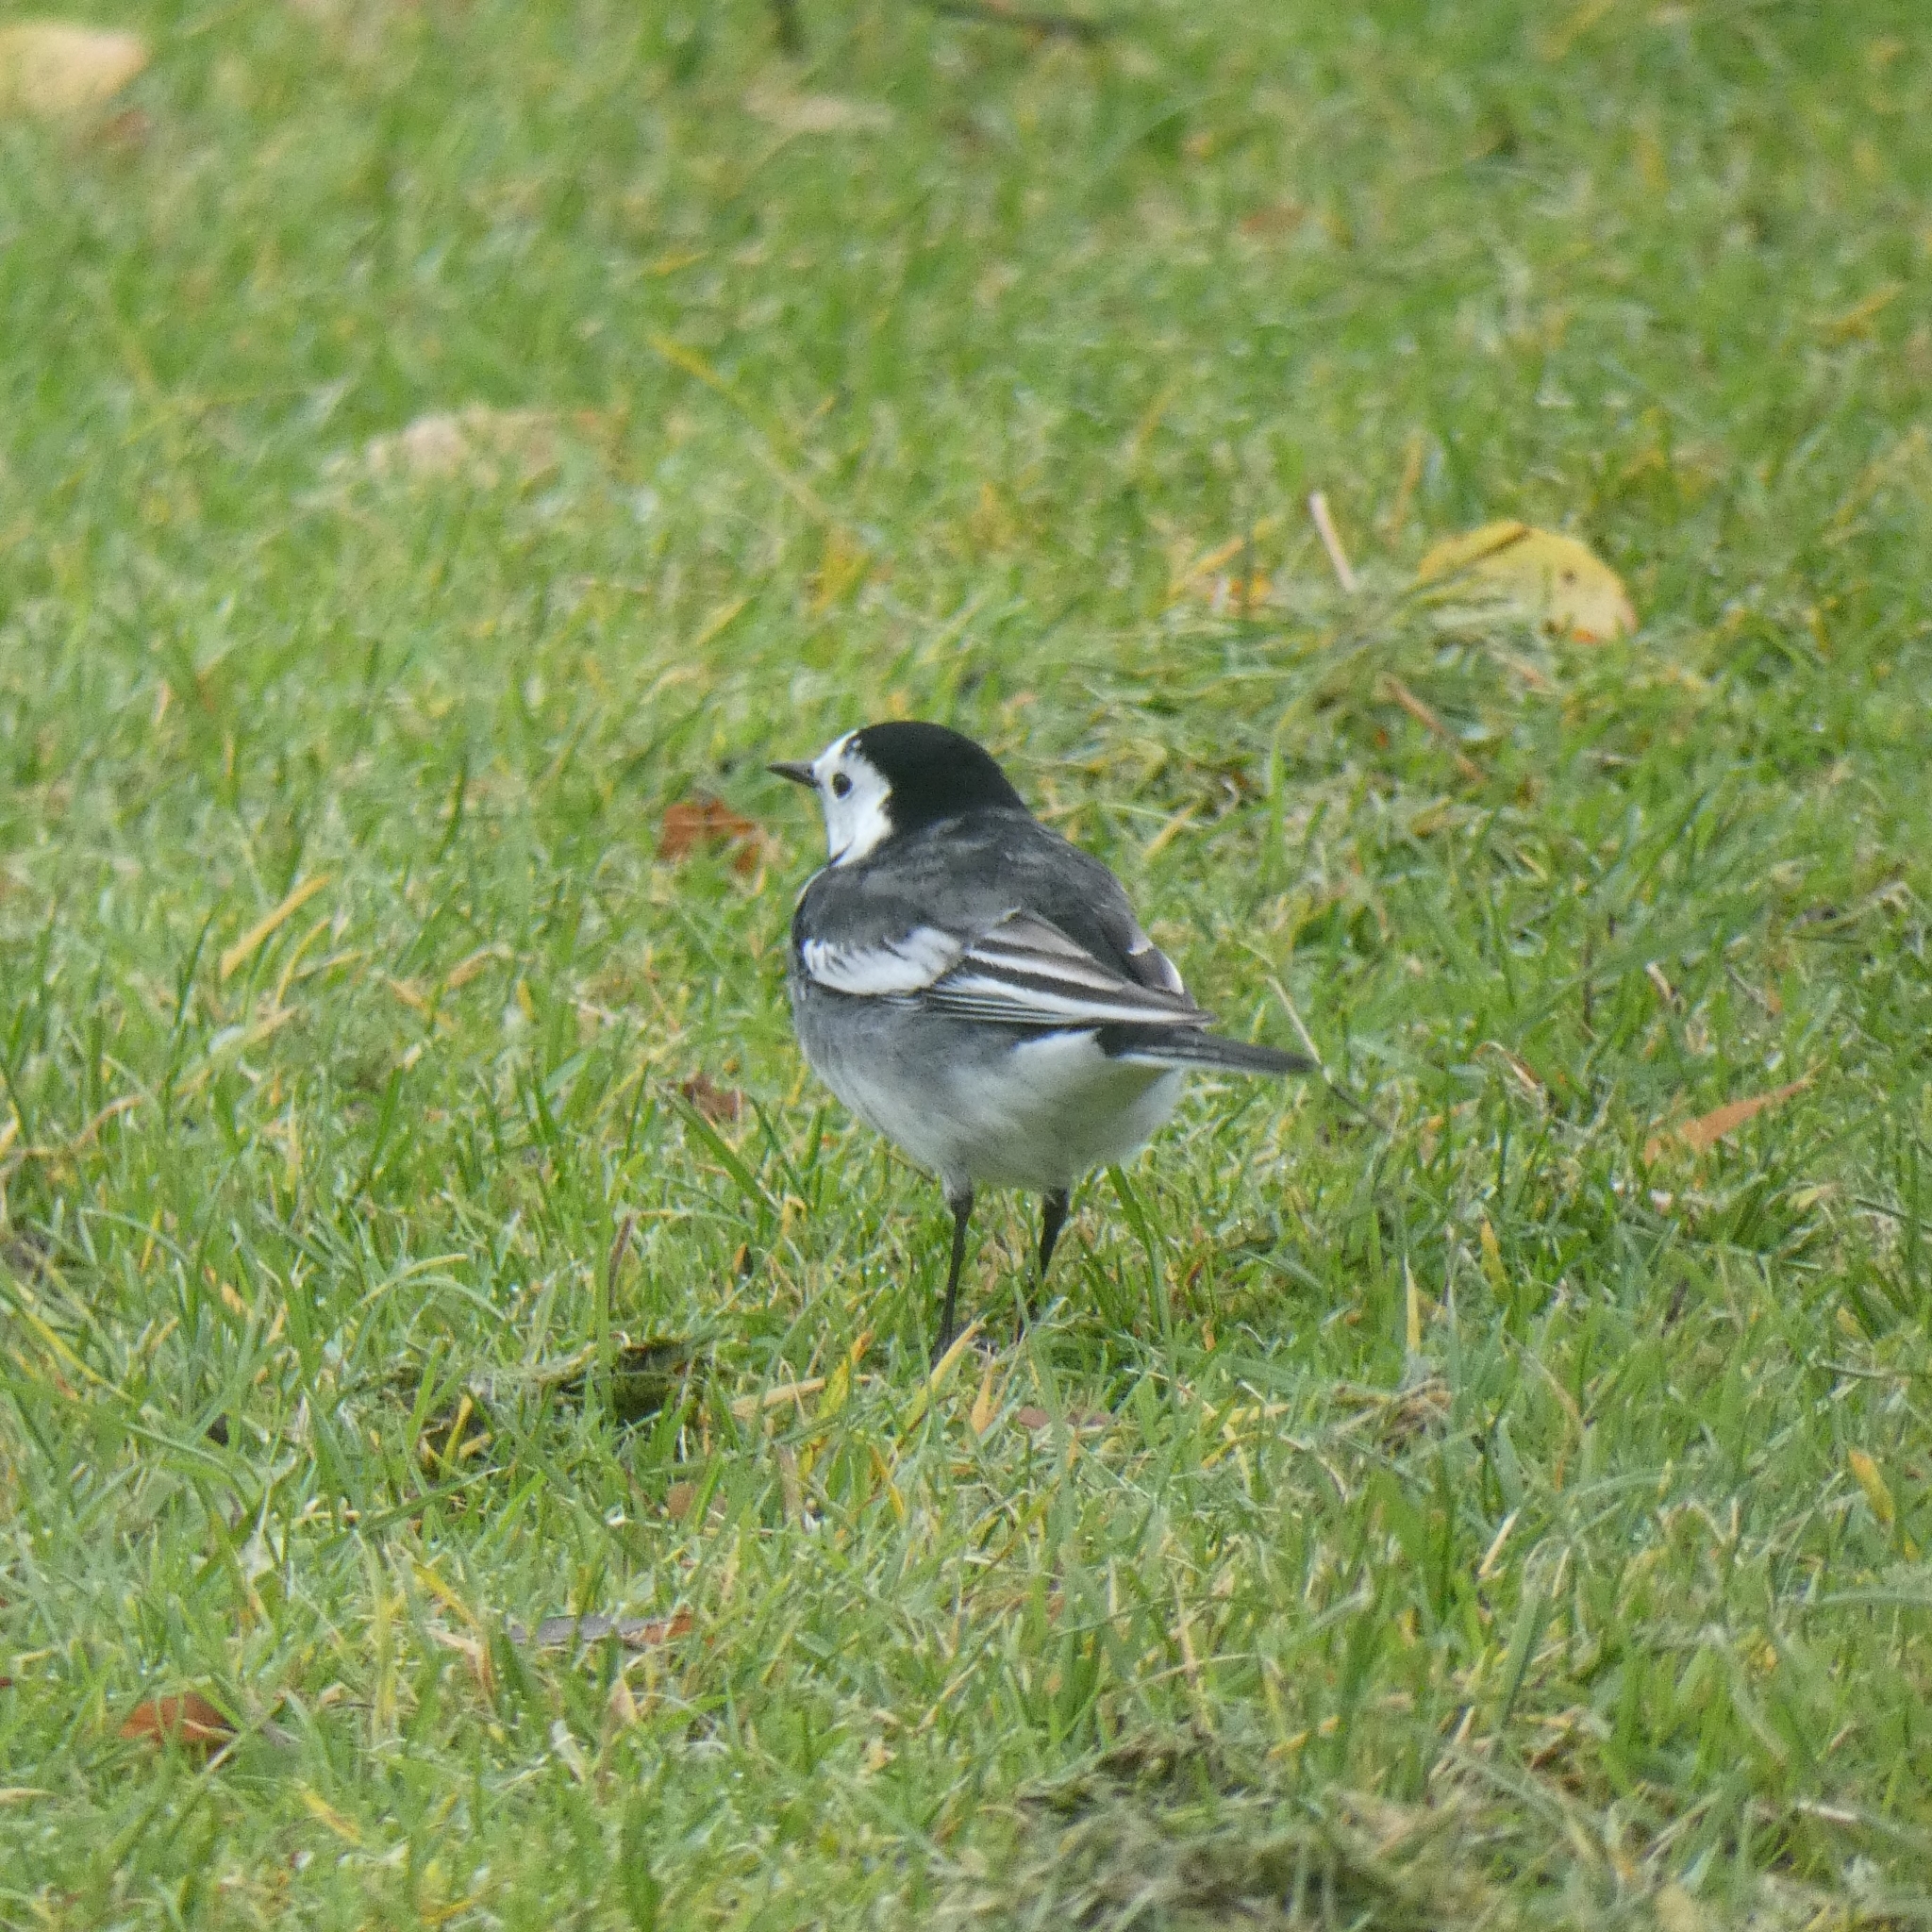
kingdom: Animalia
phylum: Chordata
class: Aves
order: Passeriformes
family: Motacillidae
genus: Motacilla
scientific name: Motacilla alba
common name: White wagtail
